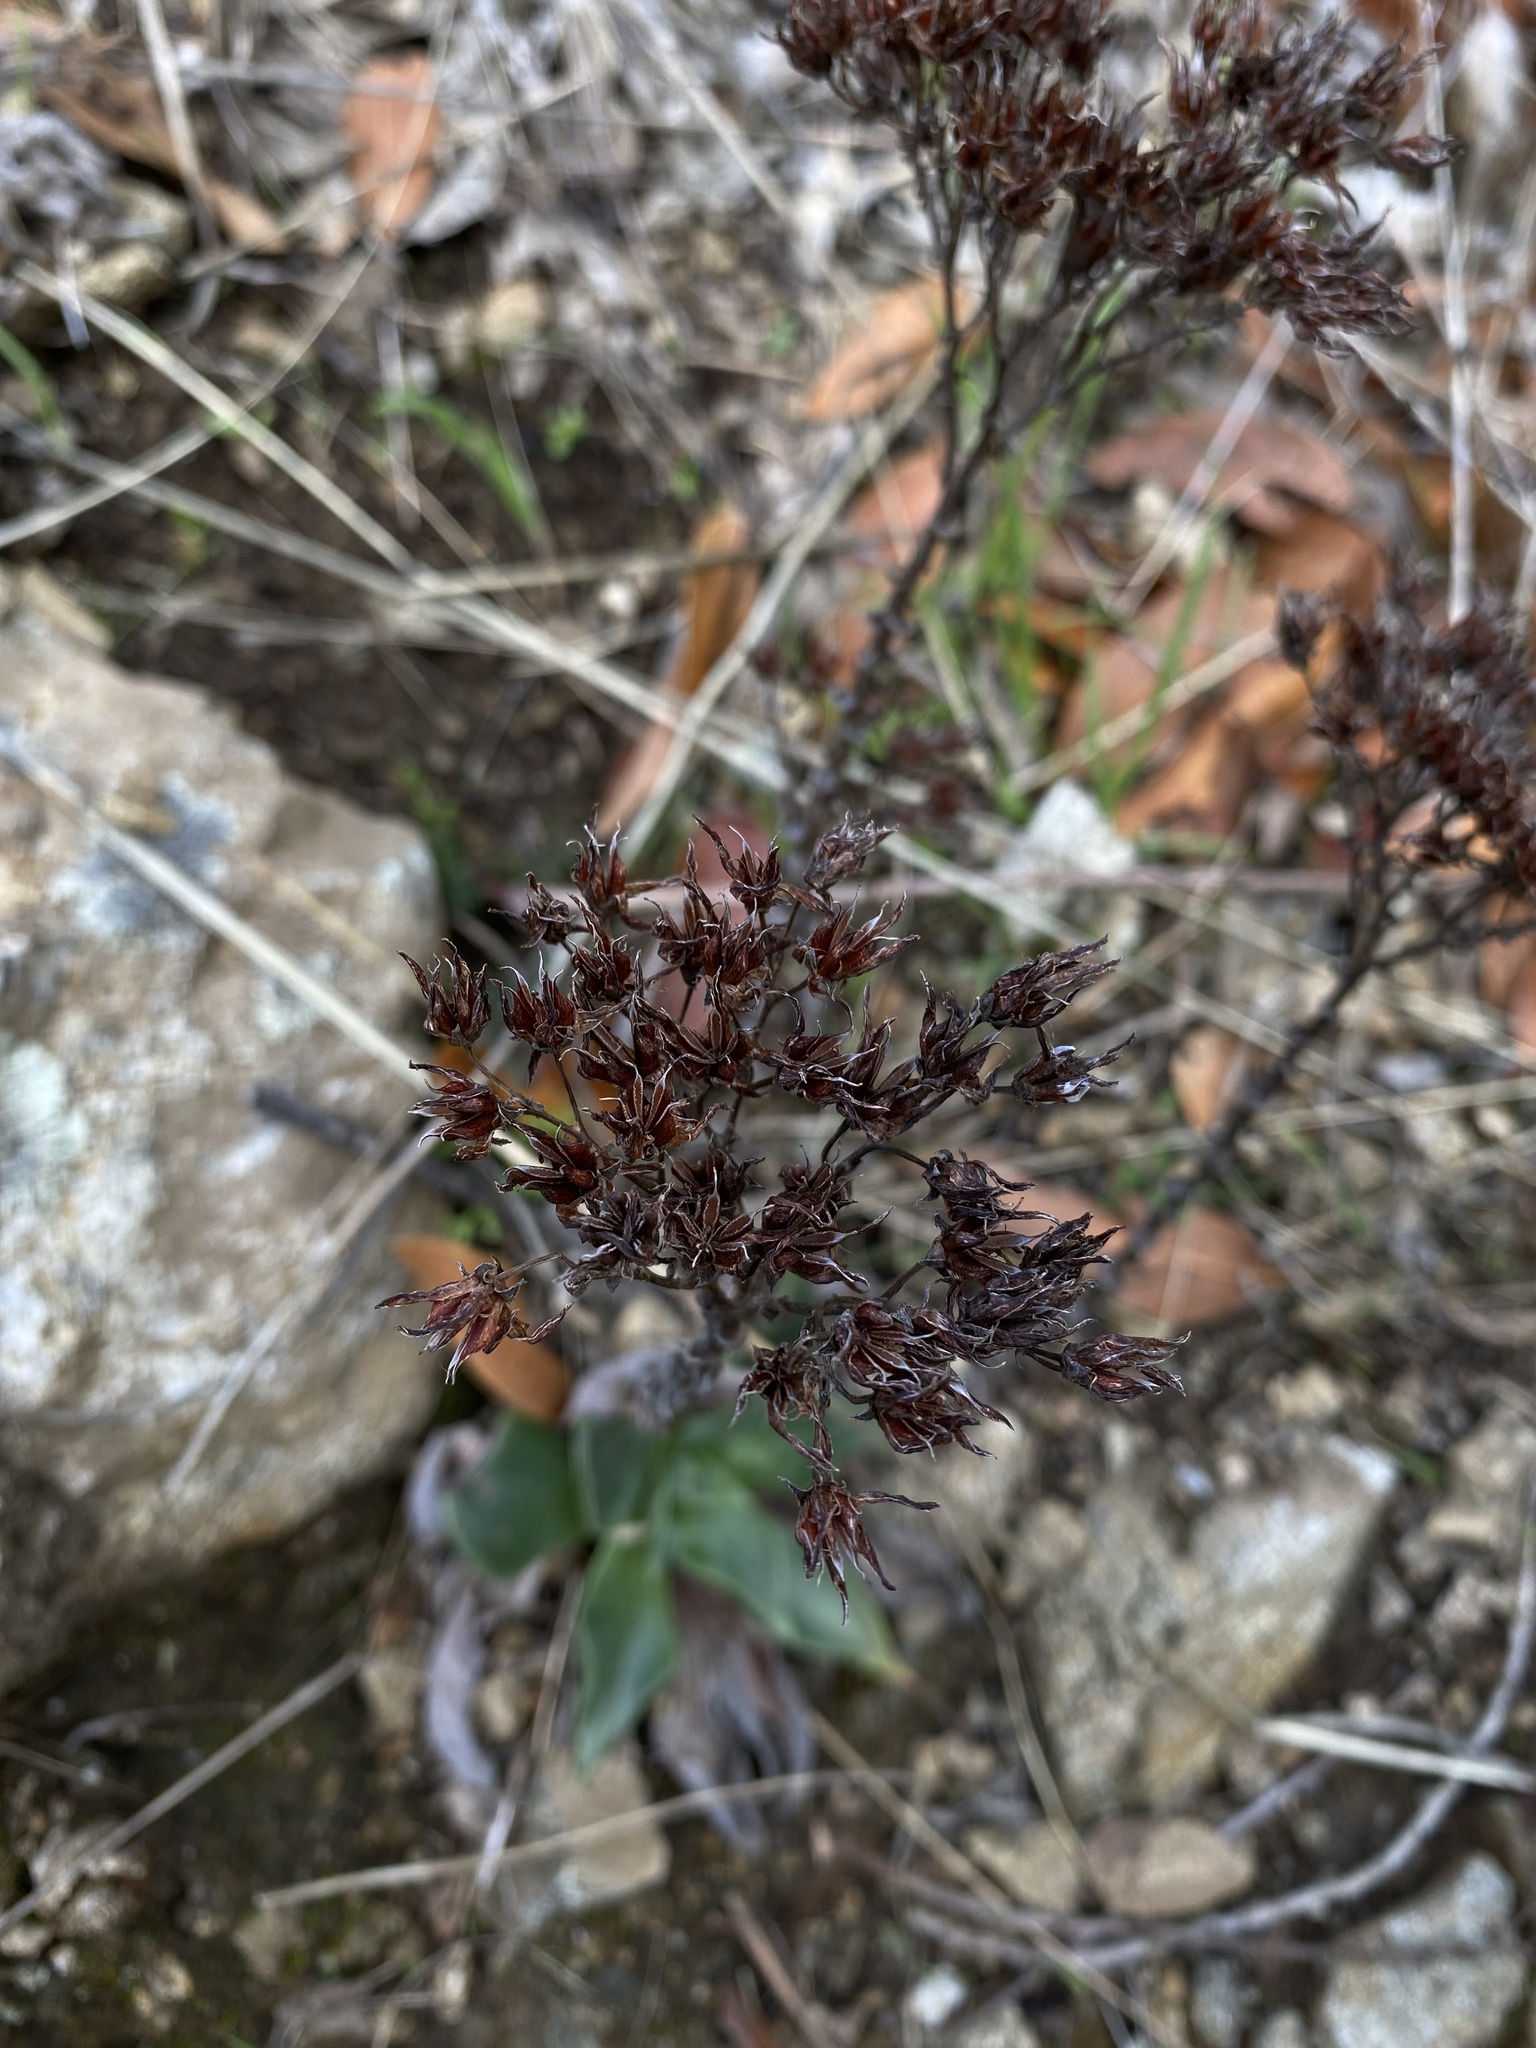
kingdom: Plantae
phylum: Tracheophyta
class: Magnoliopsida
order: Saxifragales
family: Crassulaceae
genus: Dudleya
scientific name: Dudleya cymosa
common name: Canyon dudleya
